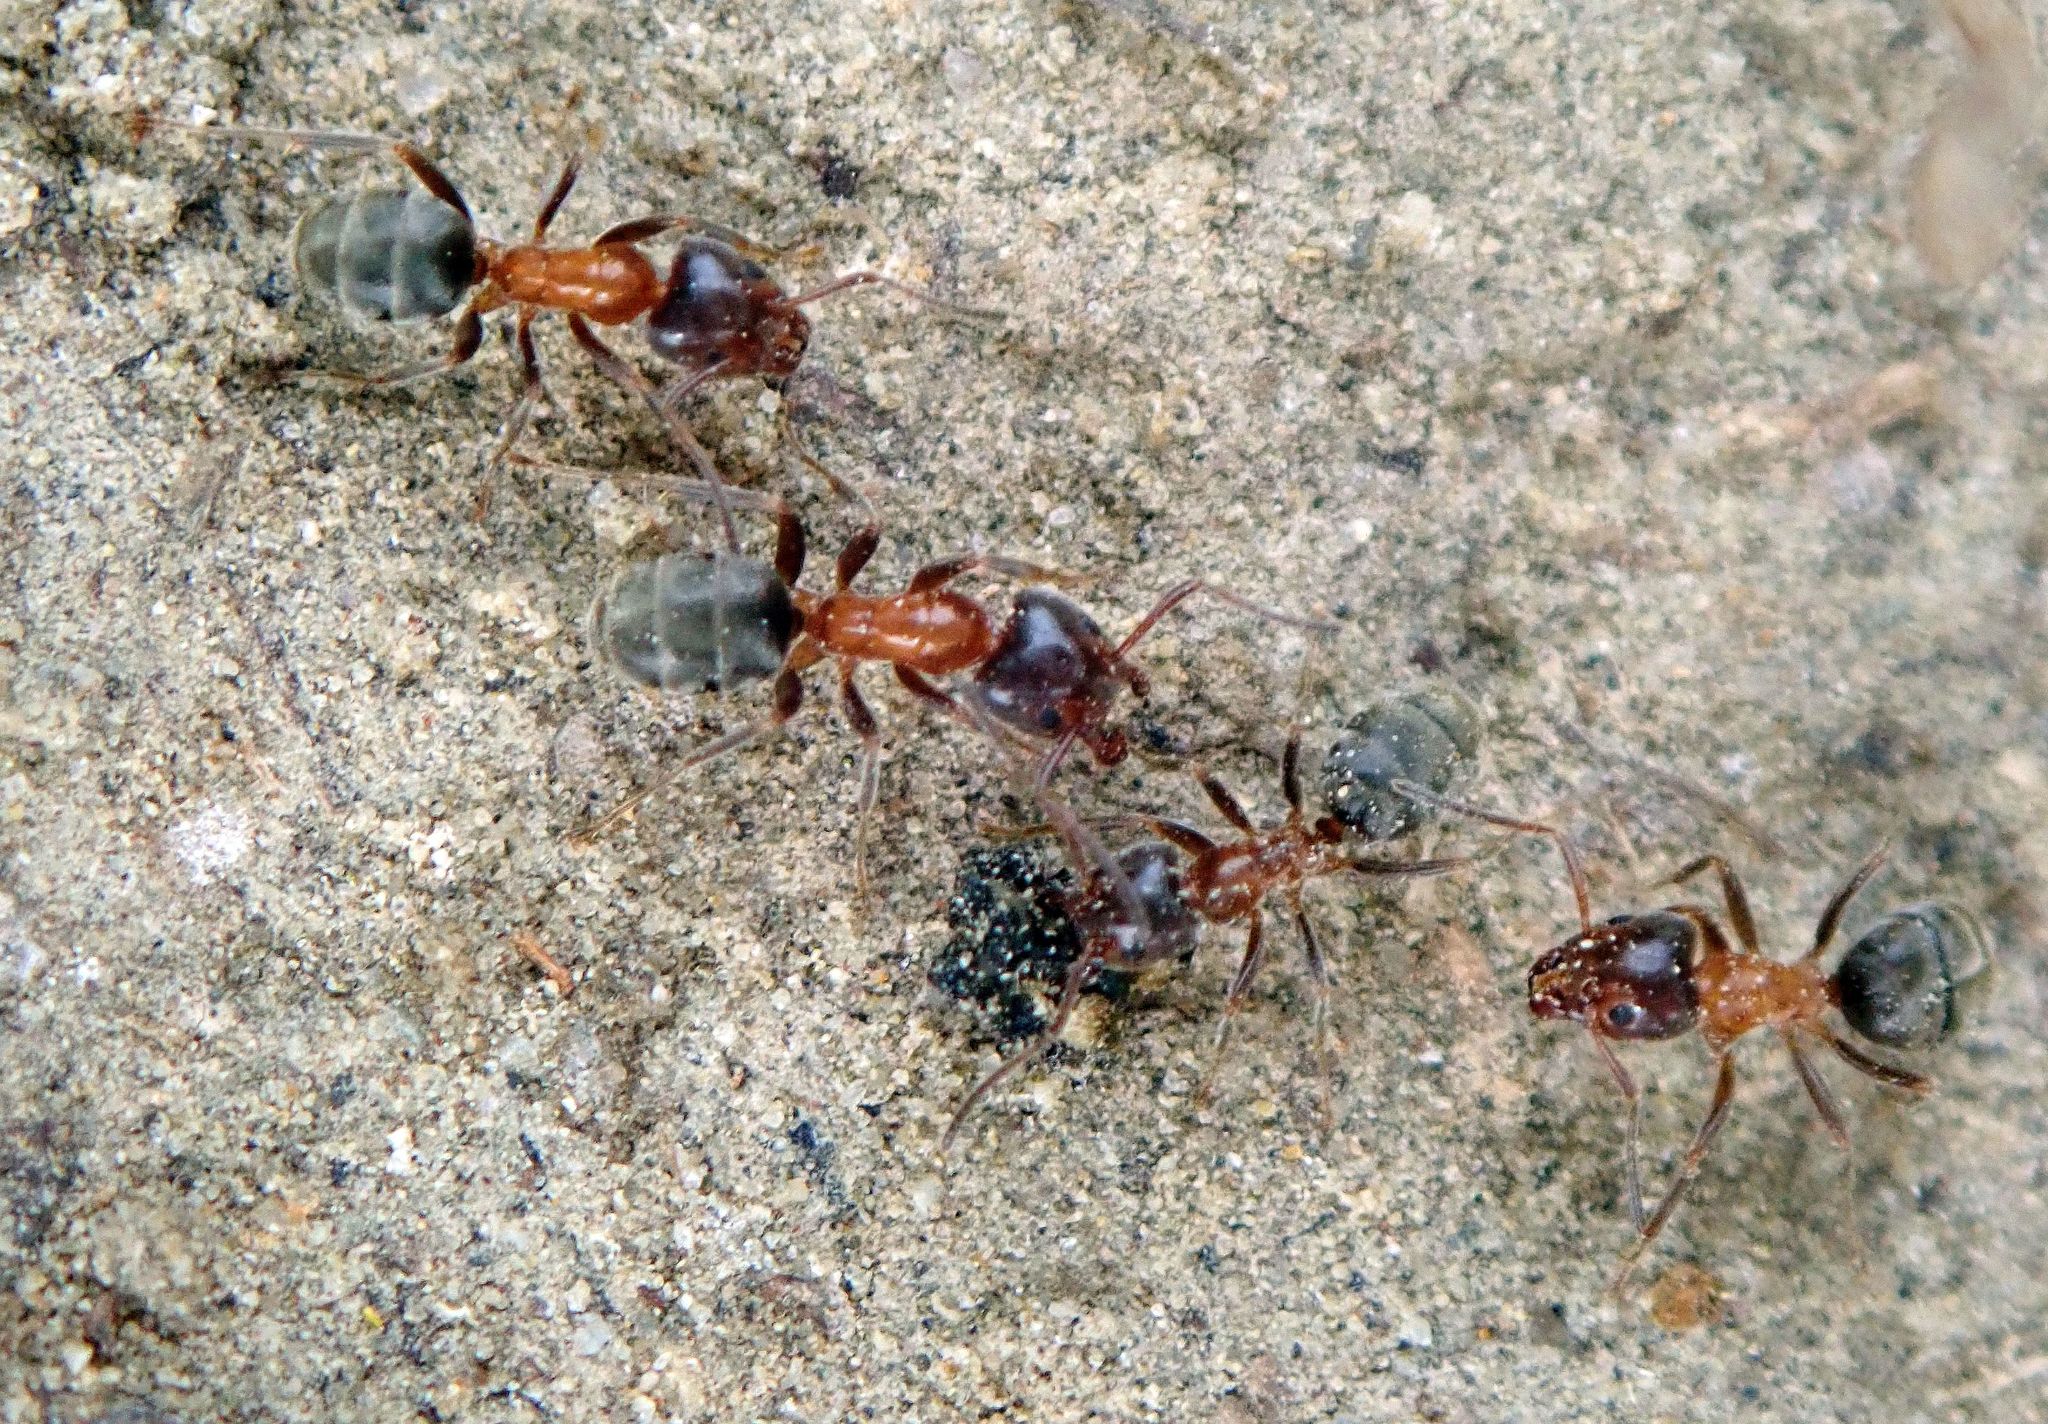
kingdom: Animalia
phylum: Arthropoda
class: Insecta
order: Hymenoptera
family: Formicidae
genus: Liometopum
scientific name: Liometopum occidentale
